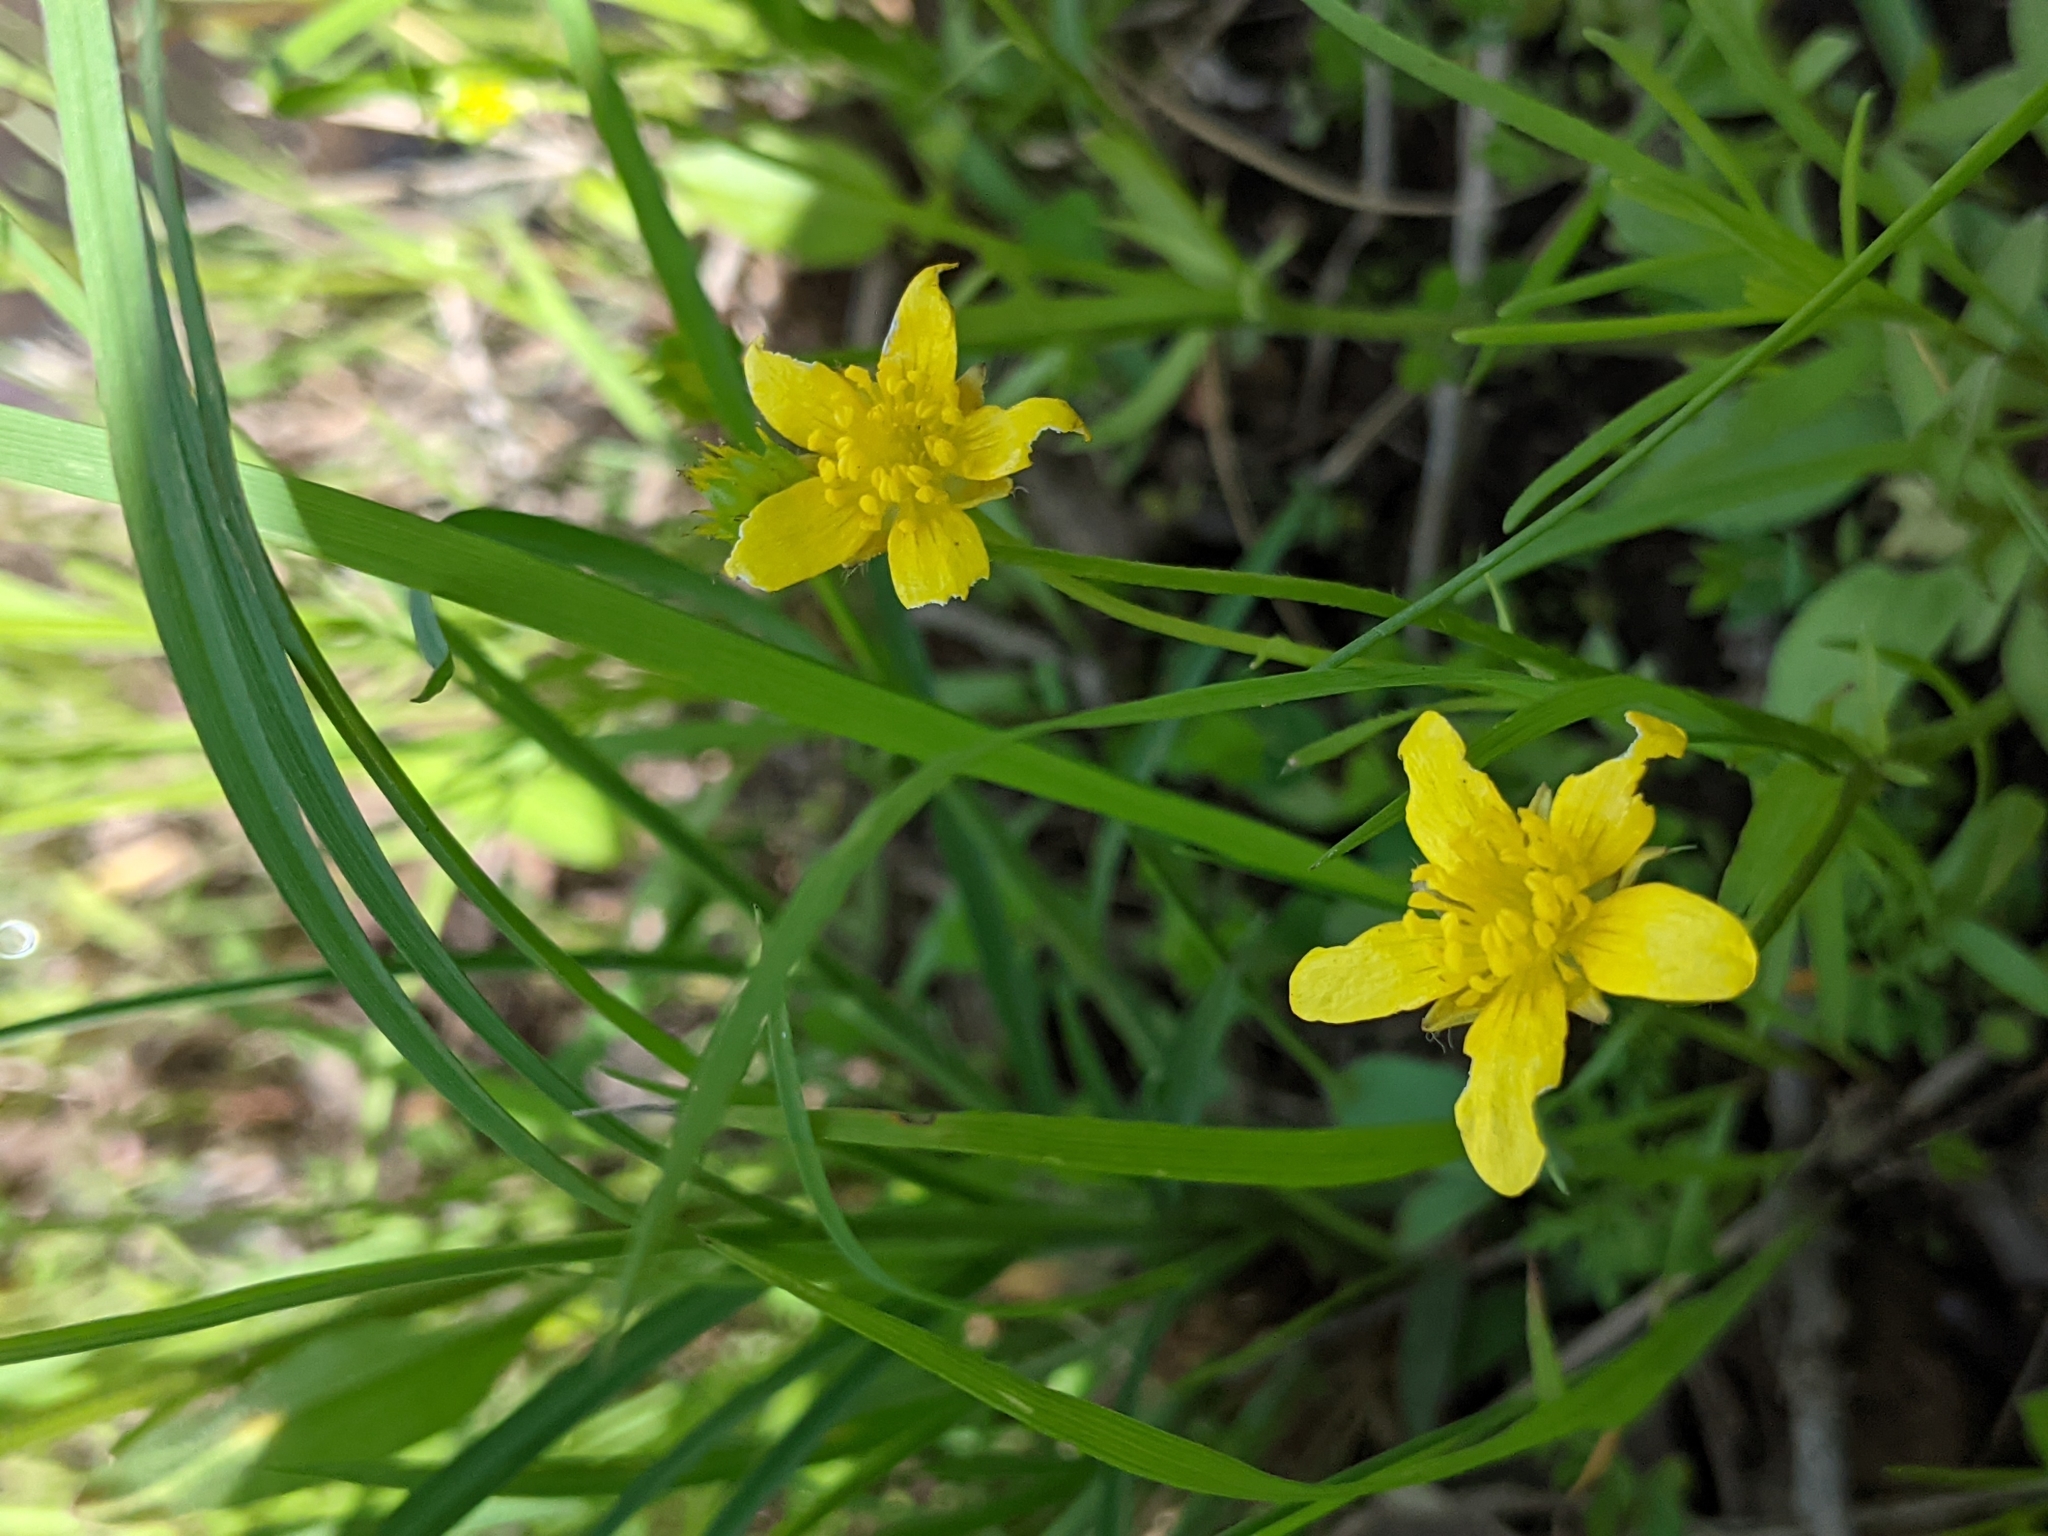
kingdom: Plantae
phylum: Tracheophyta
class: Magnoliopsida
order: Ranunculales
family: Ranunculaceae
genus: Ranunculus
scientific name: Ranunculus fascicularis
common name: Early buttercup
